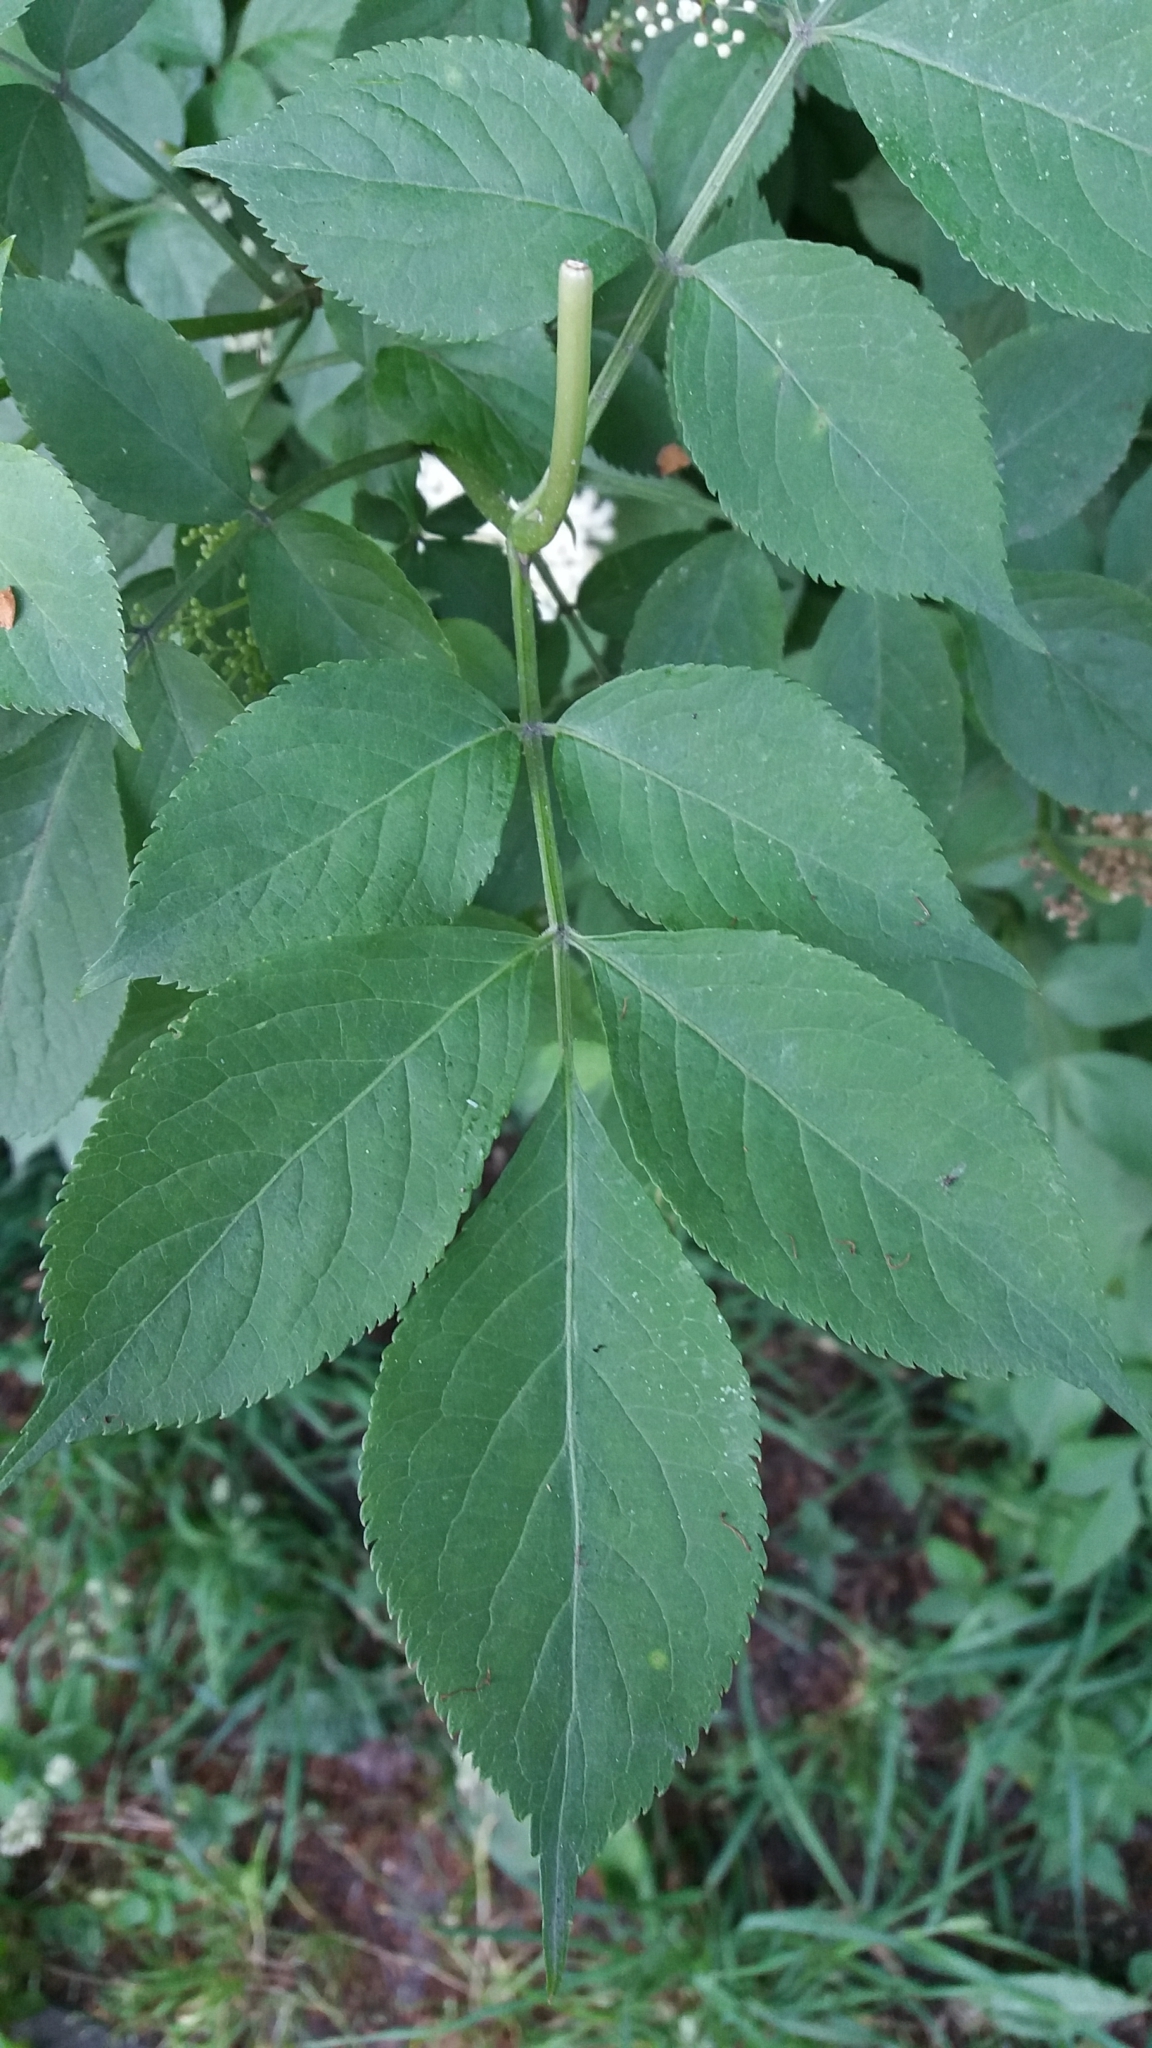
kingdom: Plantae
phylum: Tracheophyta
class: Magnoliopsida
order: Dipsacales
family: Viburnaceae
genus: Sambucus
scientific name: Sambucus nigra
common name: Elder
